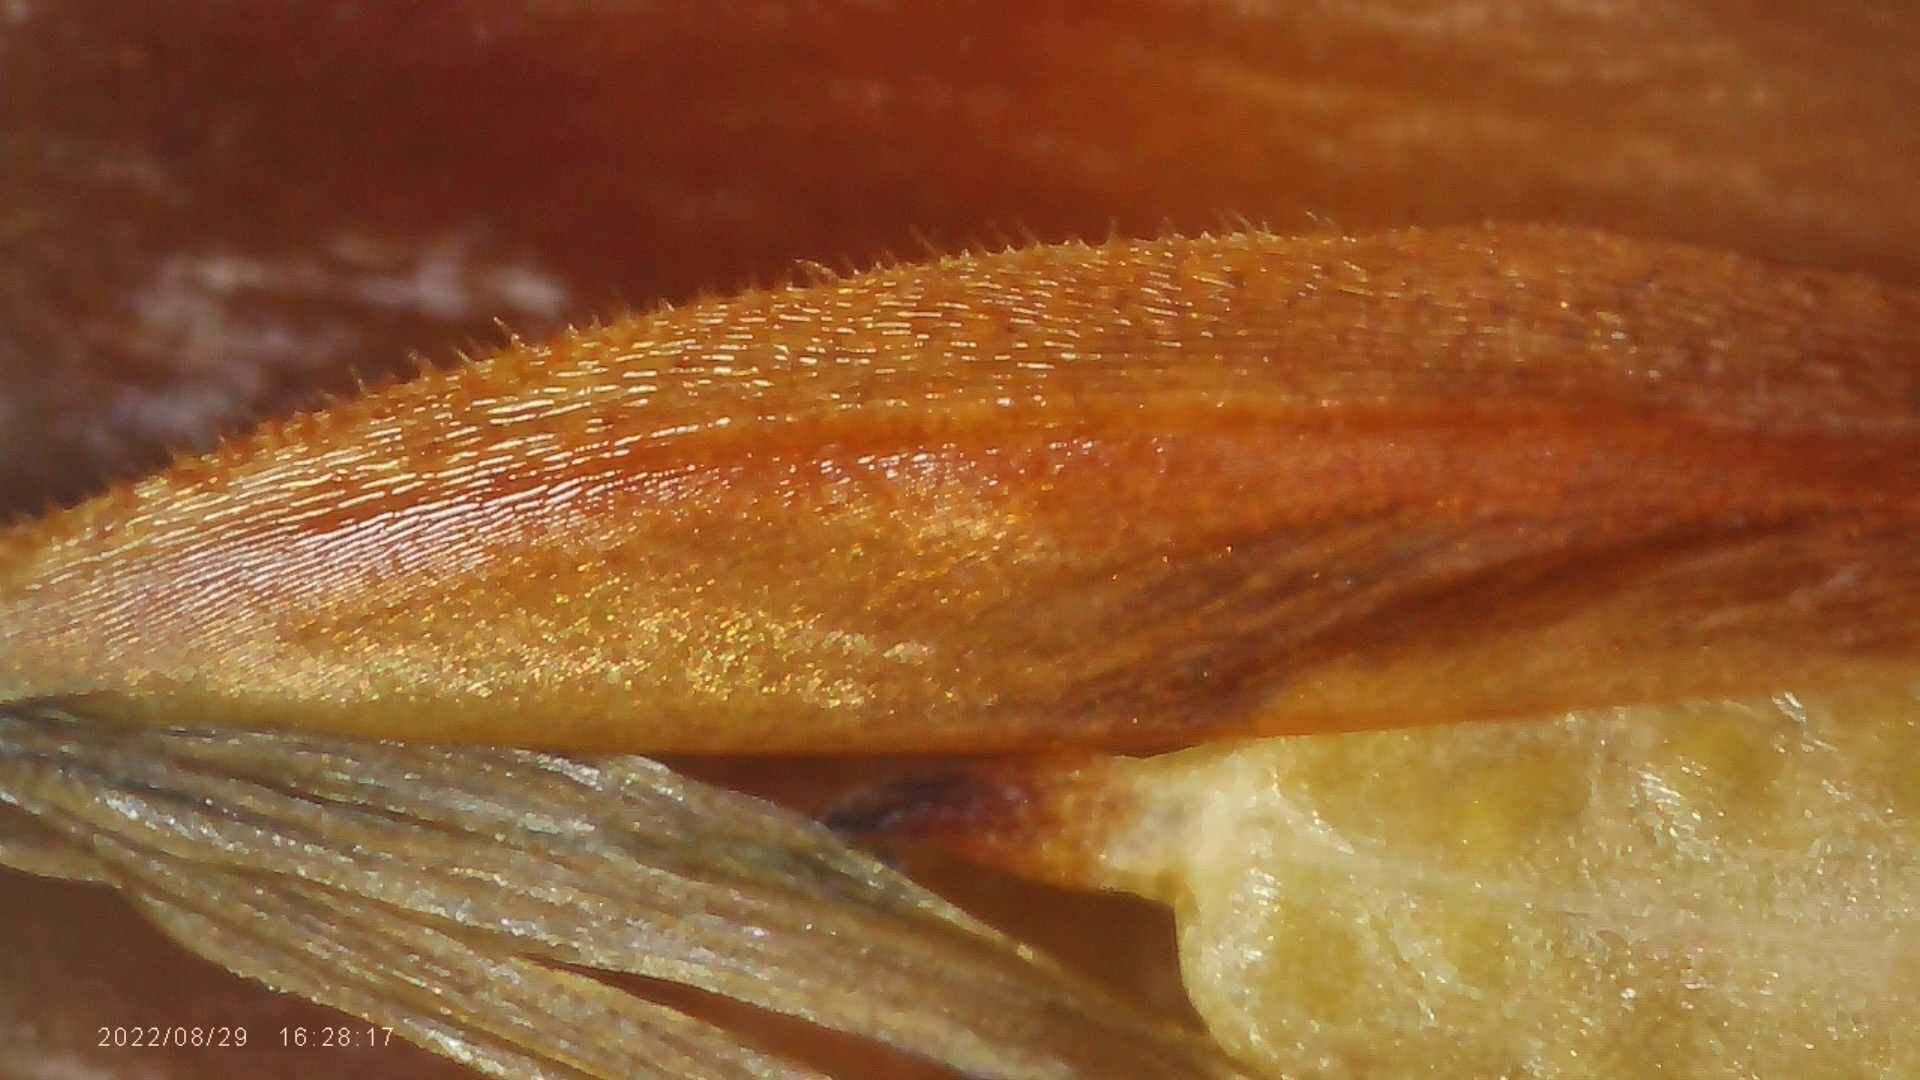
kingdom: Plantae
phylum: Tracheophyta
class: Liliopsida
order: Poales
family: Xyridaceae
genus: Xyris
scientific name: Xyris ambigua
